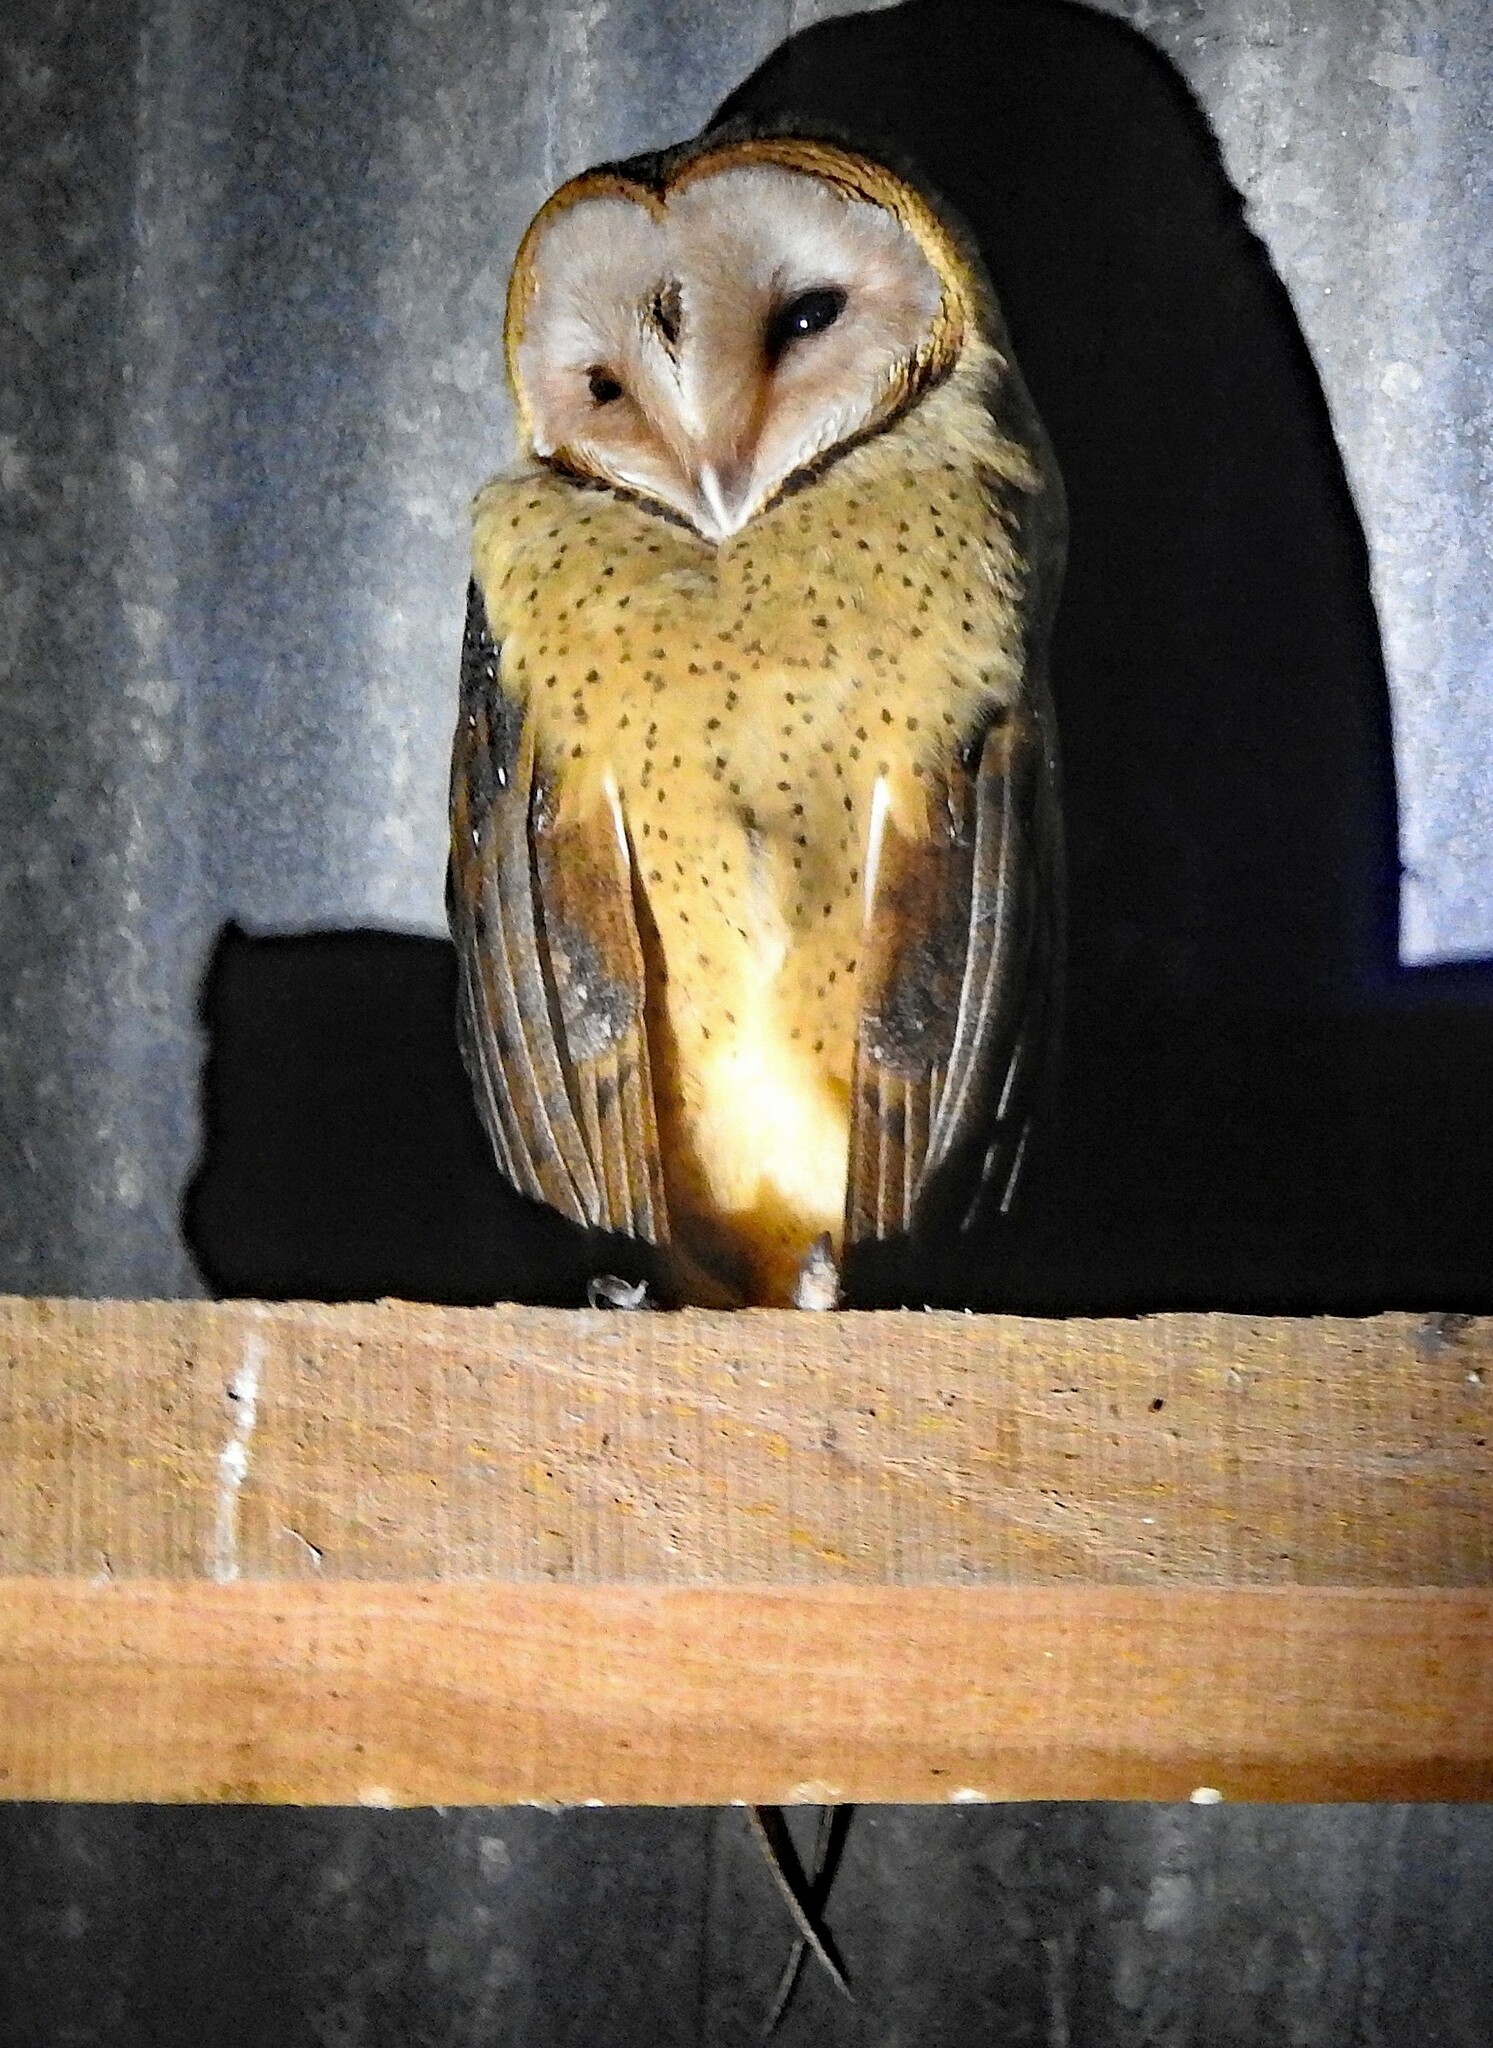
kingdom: Animalia
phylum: Chordata
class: Aves
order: Strigiformes
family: Tytonidae
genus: Tyto
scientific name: Tyto alba
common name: Barn owl
